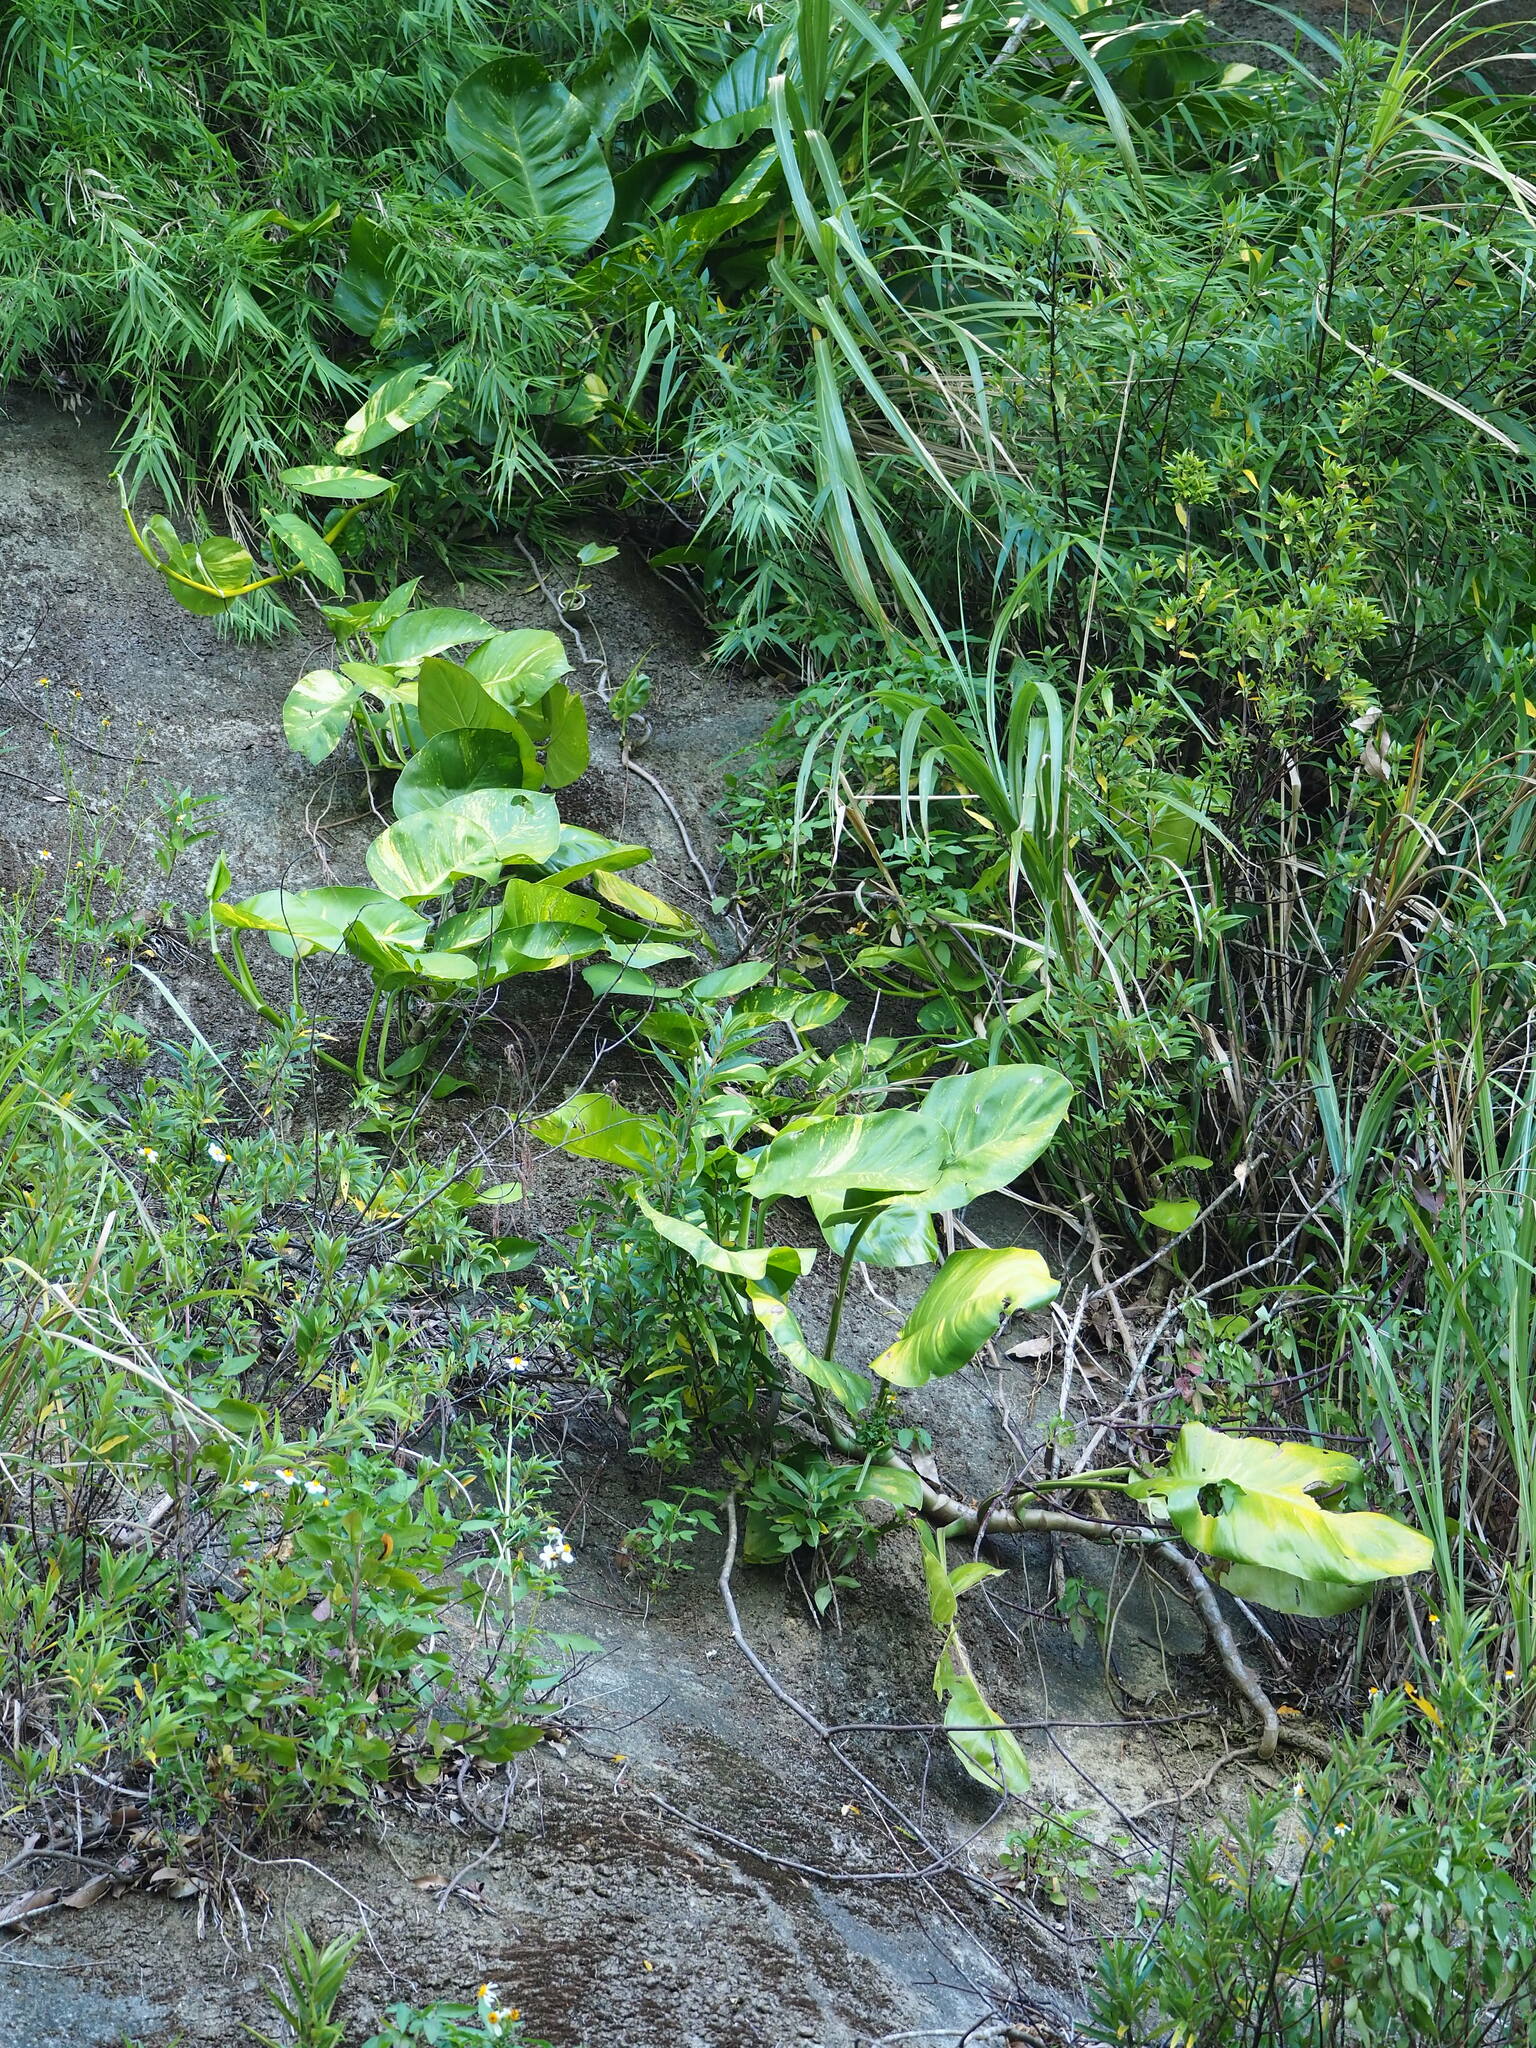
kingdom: Plantae
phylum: Tracheophyta
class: Liliopsida
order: Alismatales
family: Araceae
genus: Epipremnum
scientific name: Epipremnum aureum
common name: Golden hunter's-robe
